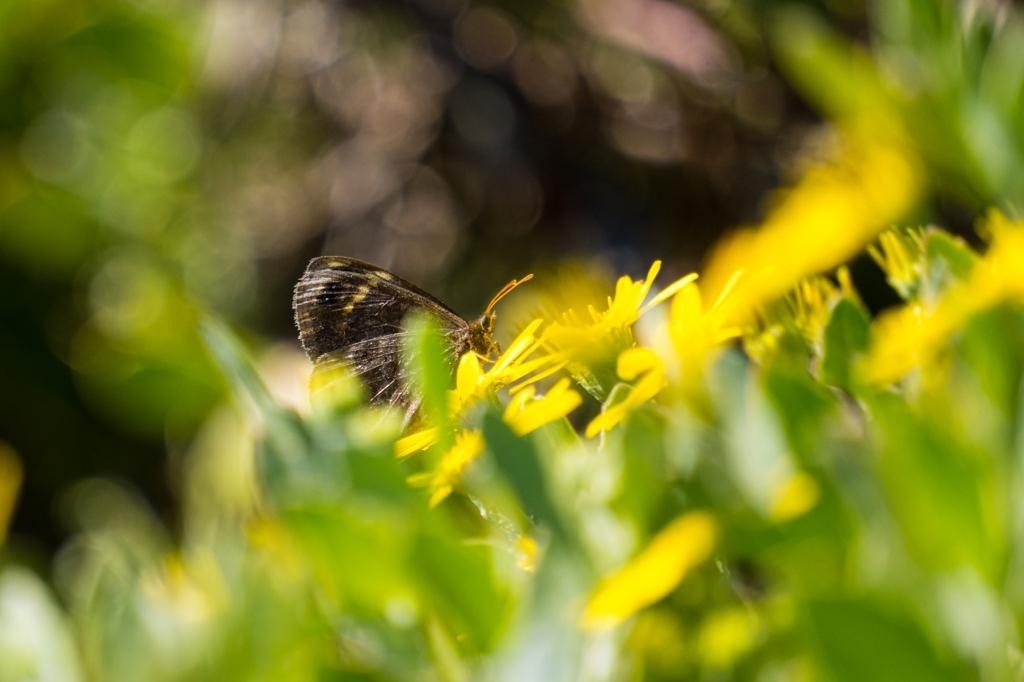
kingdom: Animalia
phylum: Arthropoda
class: Insecta
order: Lepidoptera
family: Nymphalidae
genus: Dira
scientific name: Dira clytus
